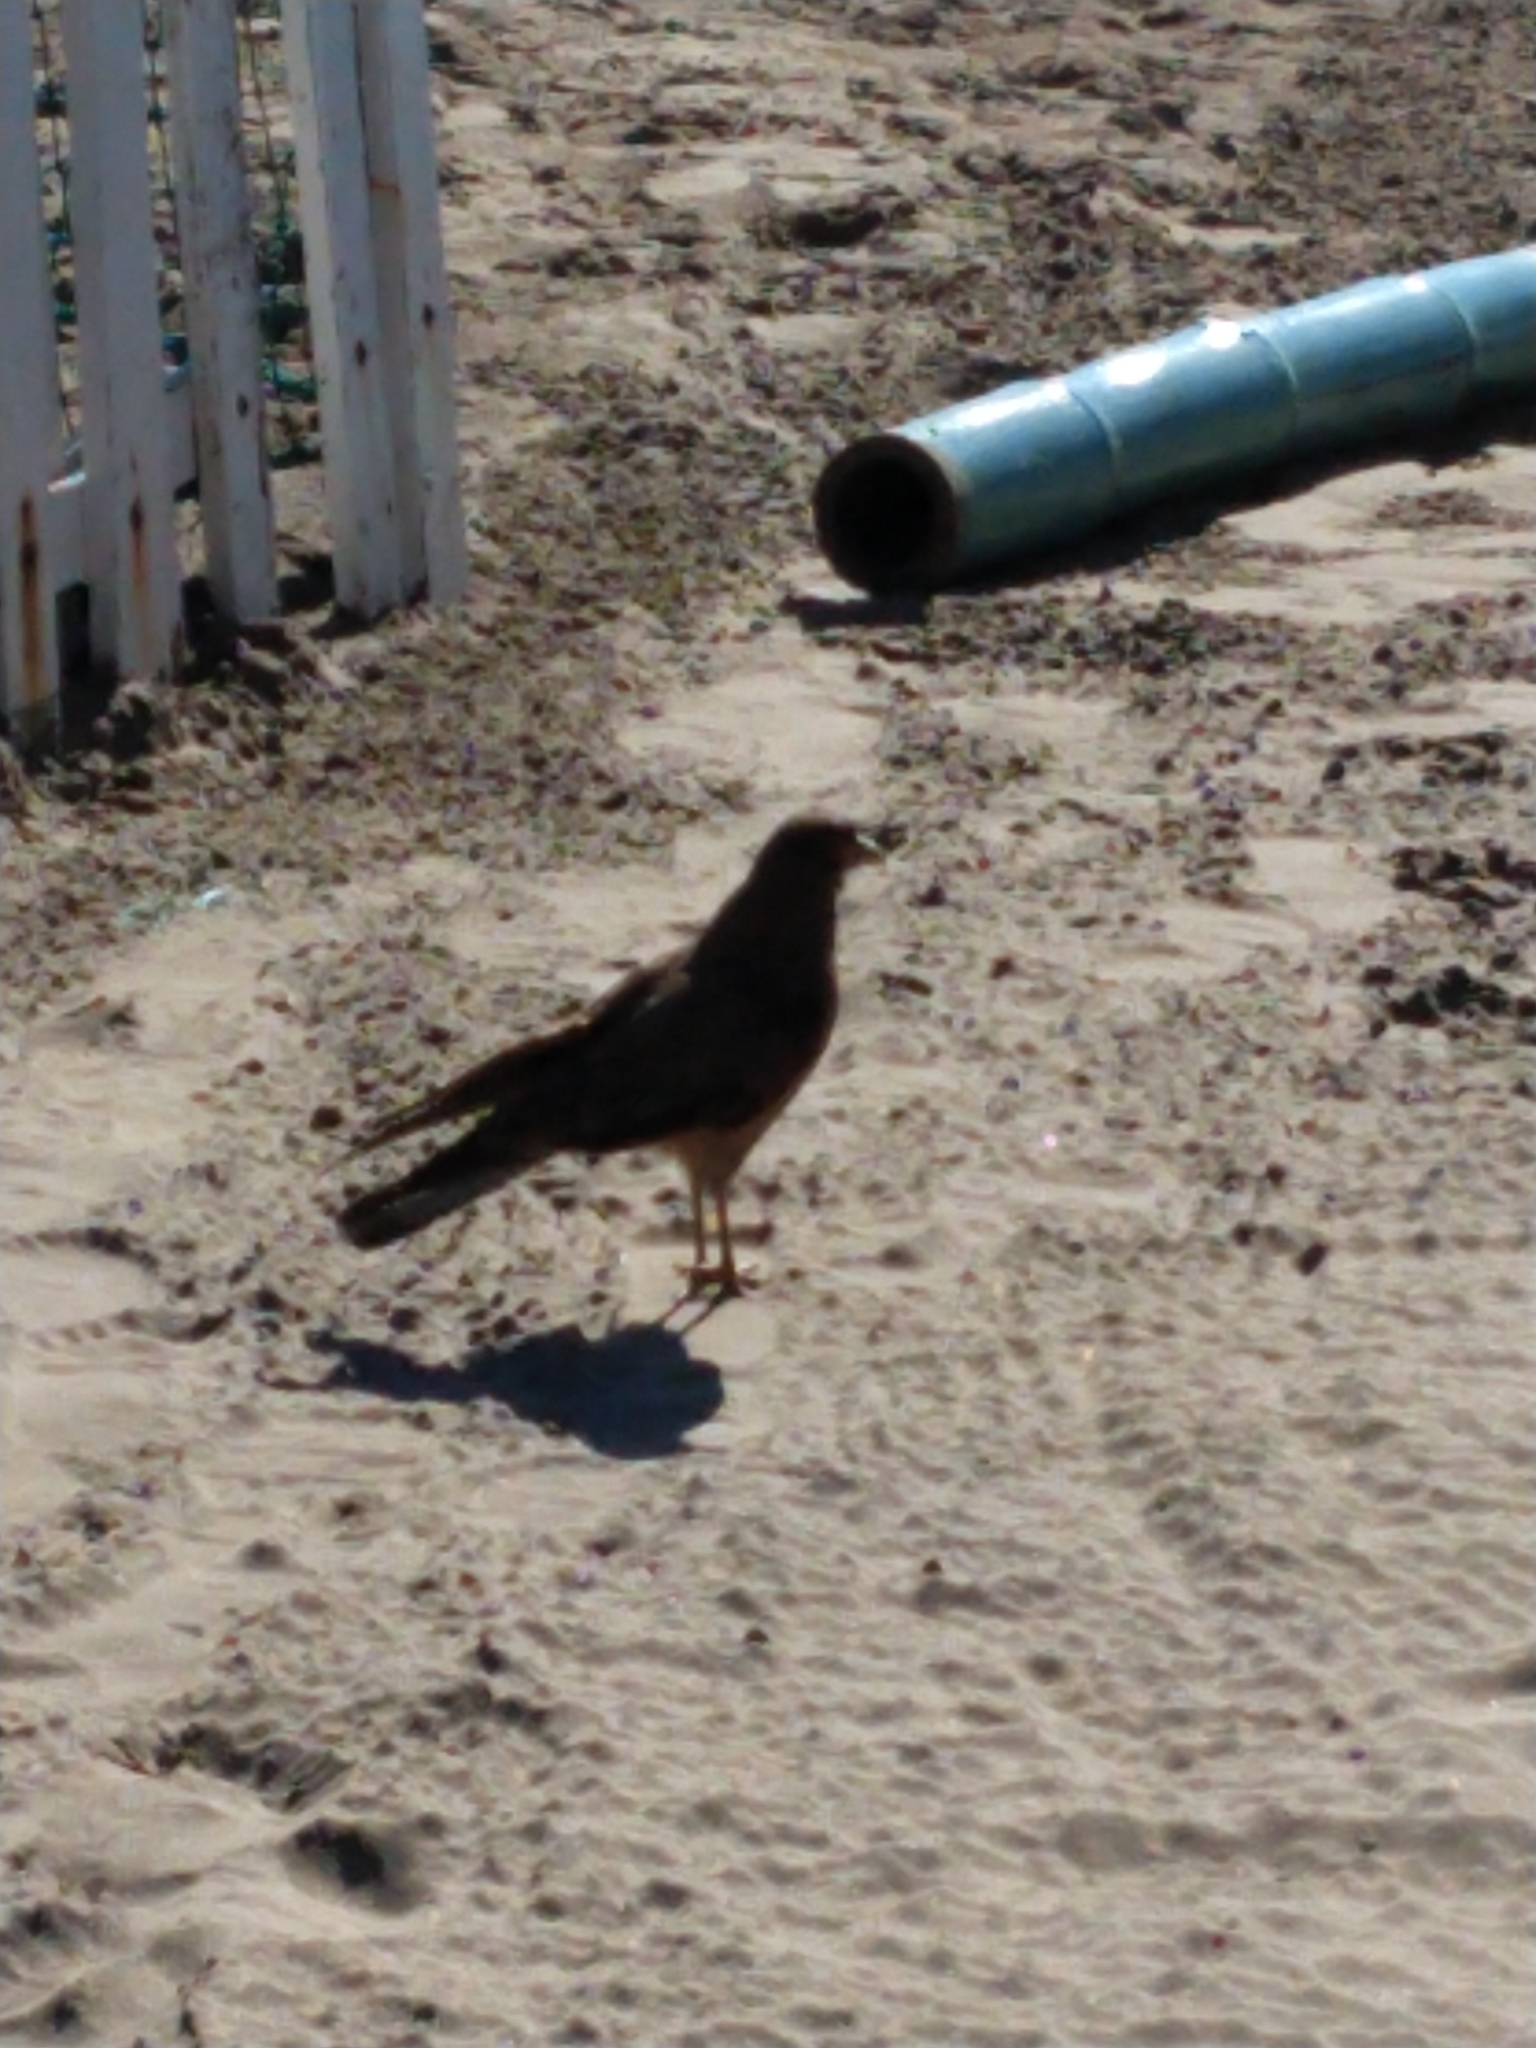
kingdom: Animalia
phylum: Chordata
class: Aves
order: Falconiformes
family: Falconidae
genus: Daptrius
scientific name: Daptrius
